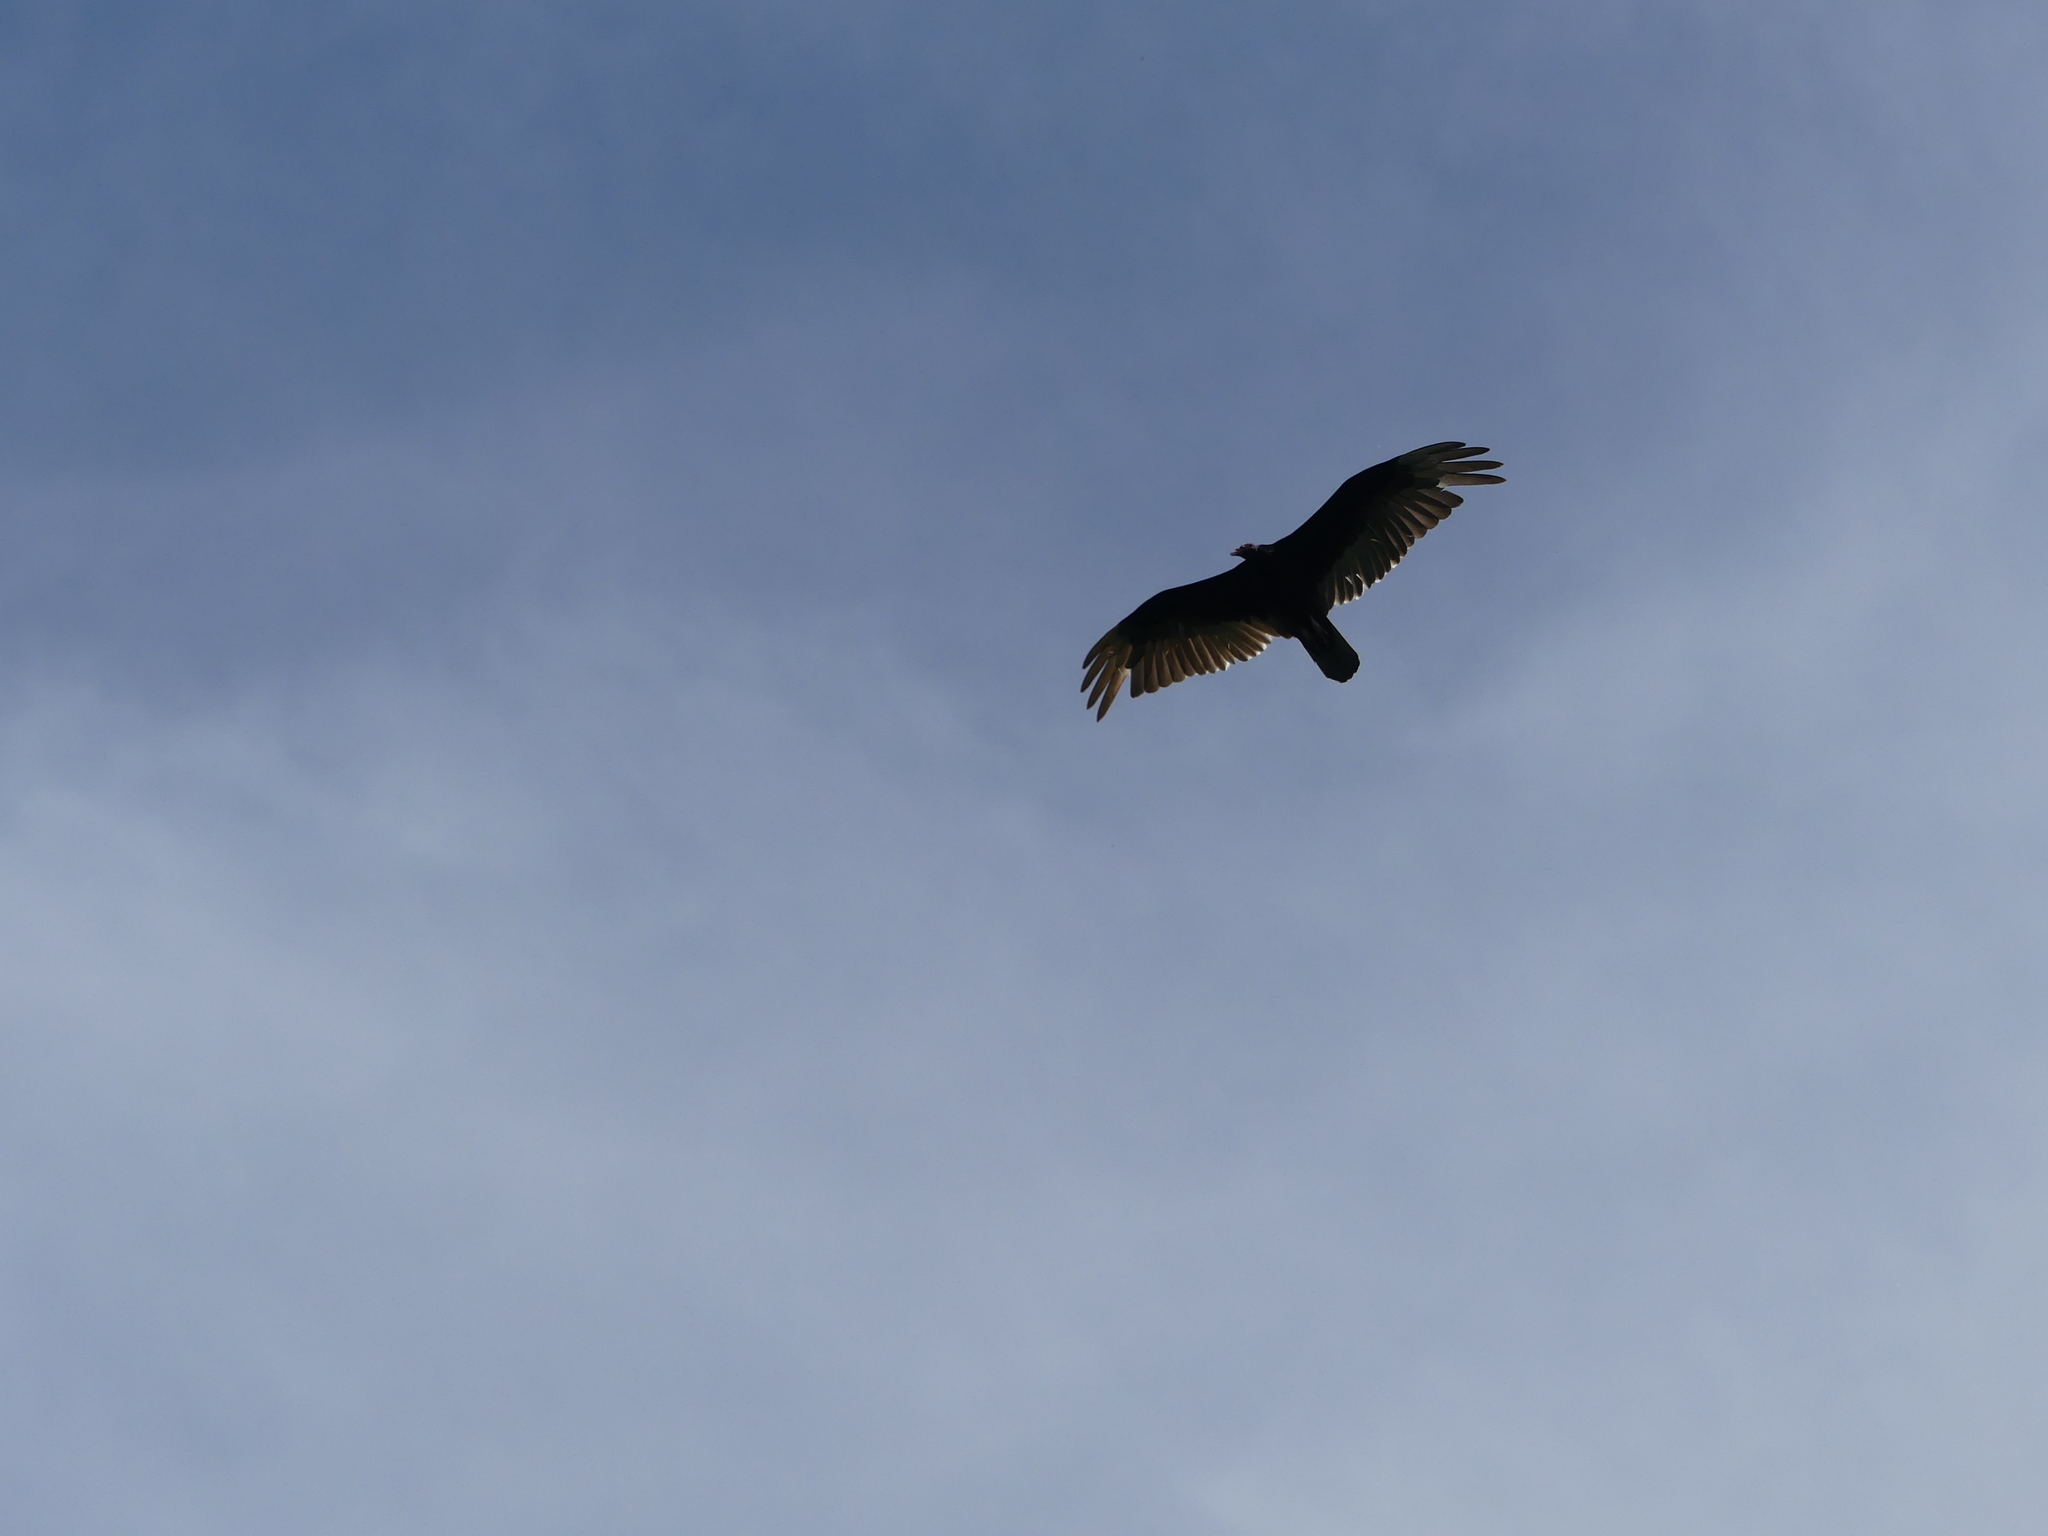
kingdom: Animalia
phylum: Chordata
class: Aves
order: Accipitriformes
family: Cathartidae
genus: Cathartes
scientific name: Cathartes aura
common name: Turkey vulture
